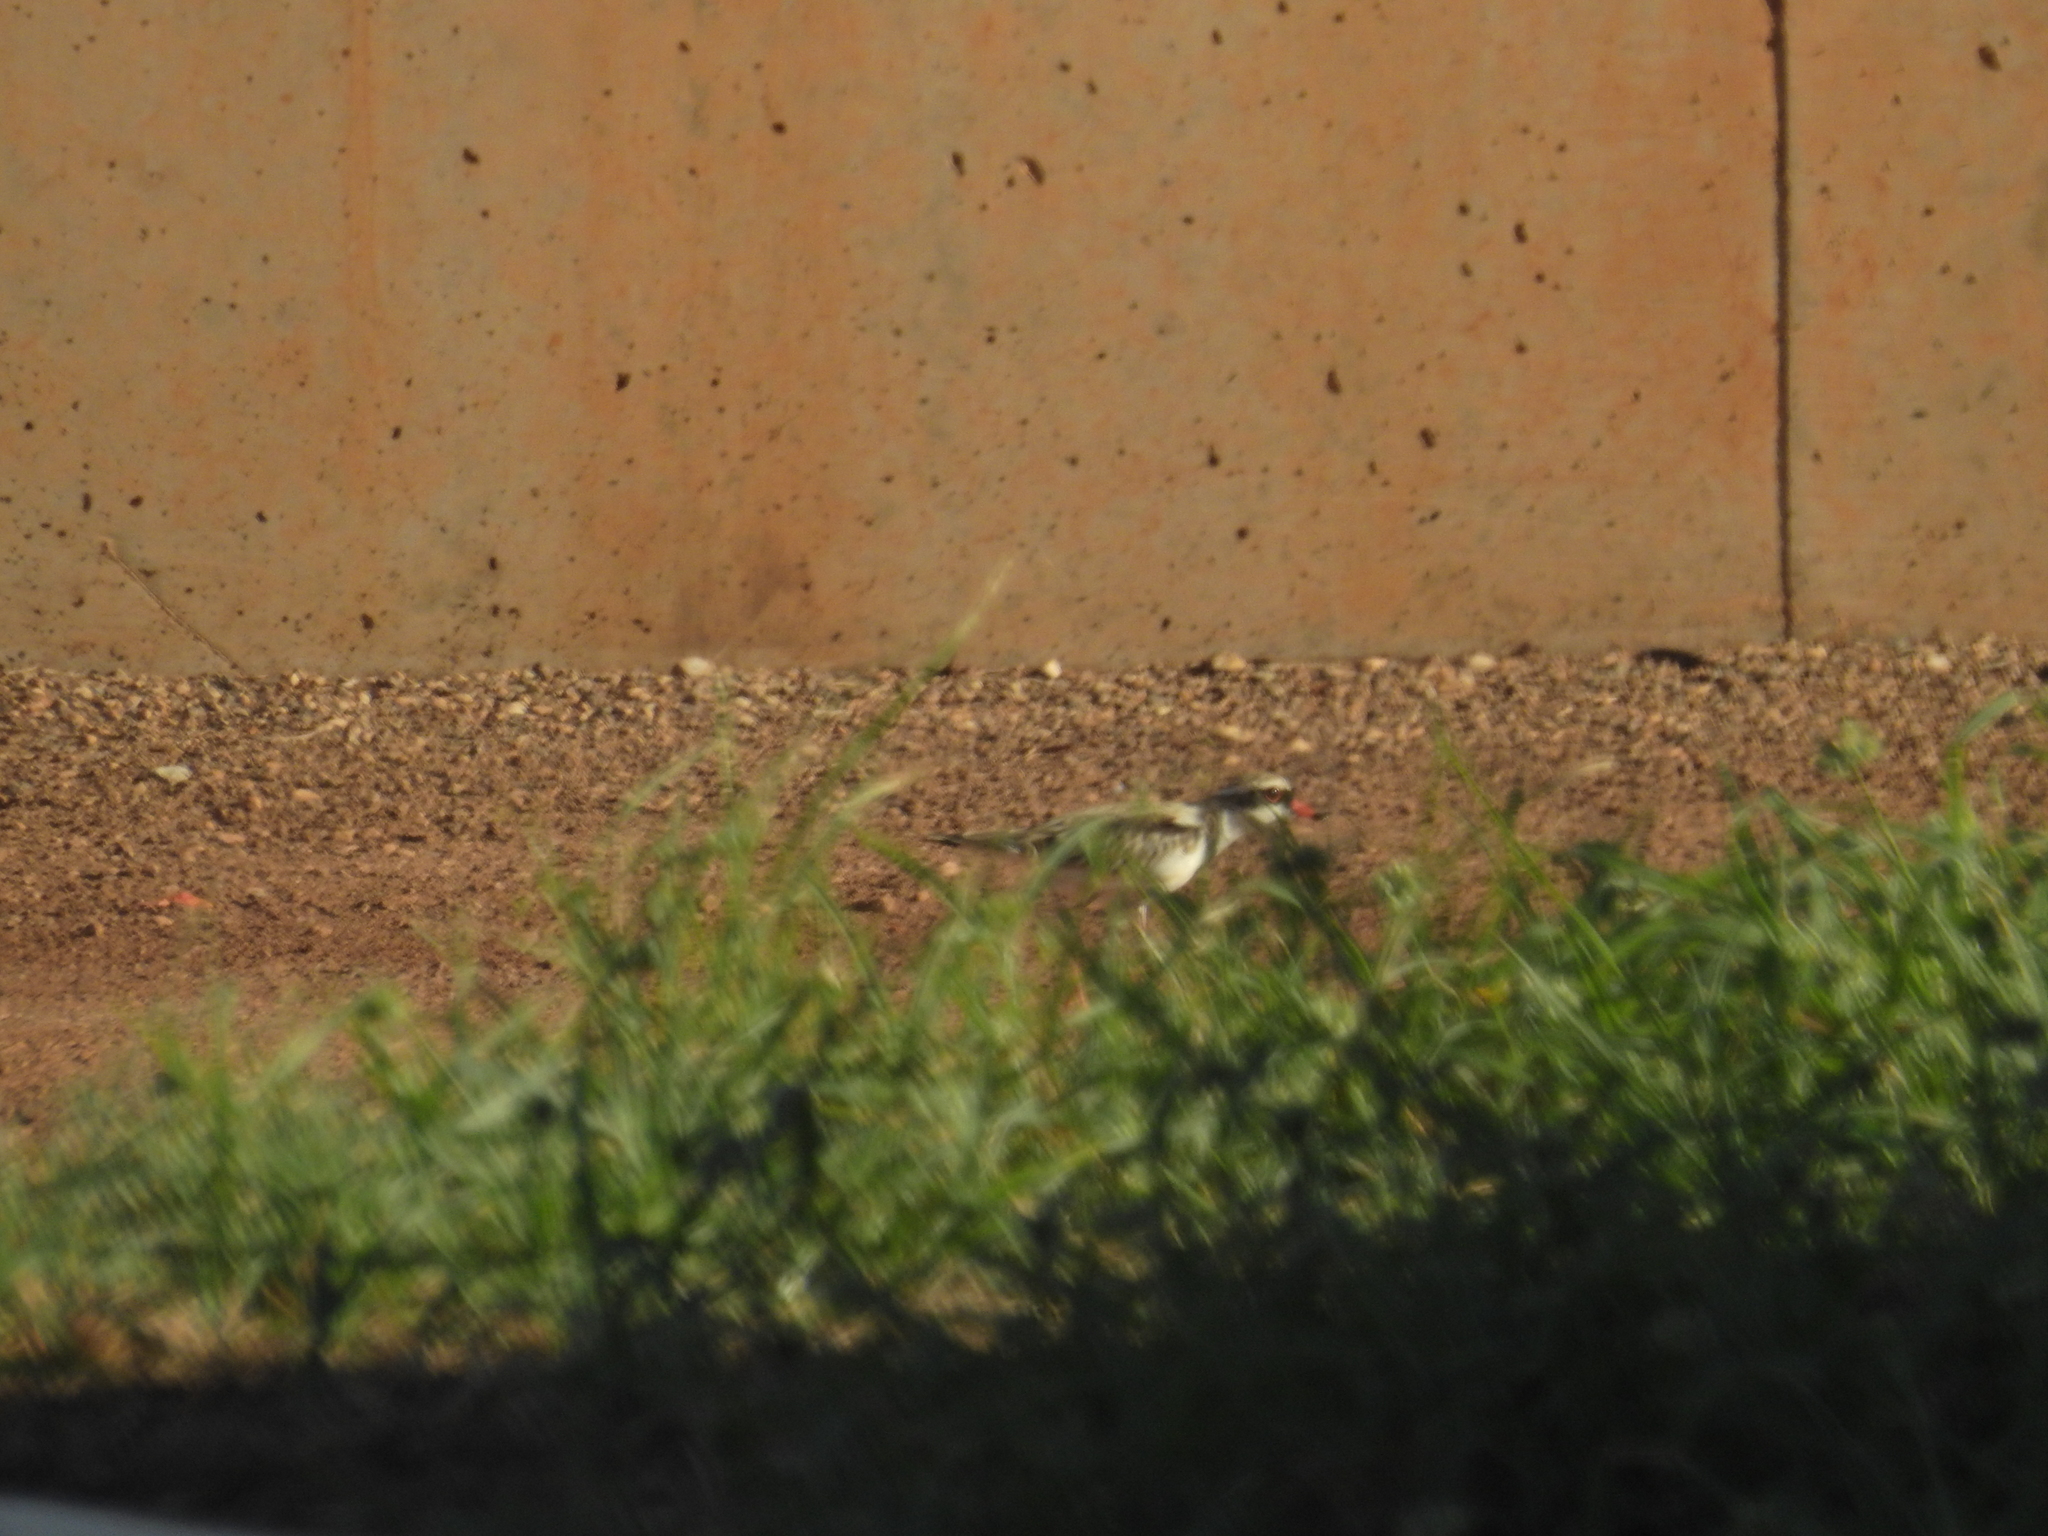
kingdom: Animalia
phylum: Chordata
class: Aves
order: Charadriiformes
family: Charadriidae
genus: Elseyornis
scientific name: Elseyornis melanops
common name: Black-fronted dotterel
